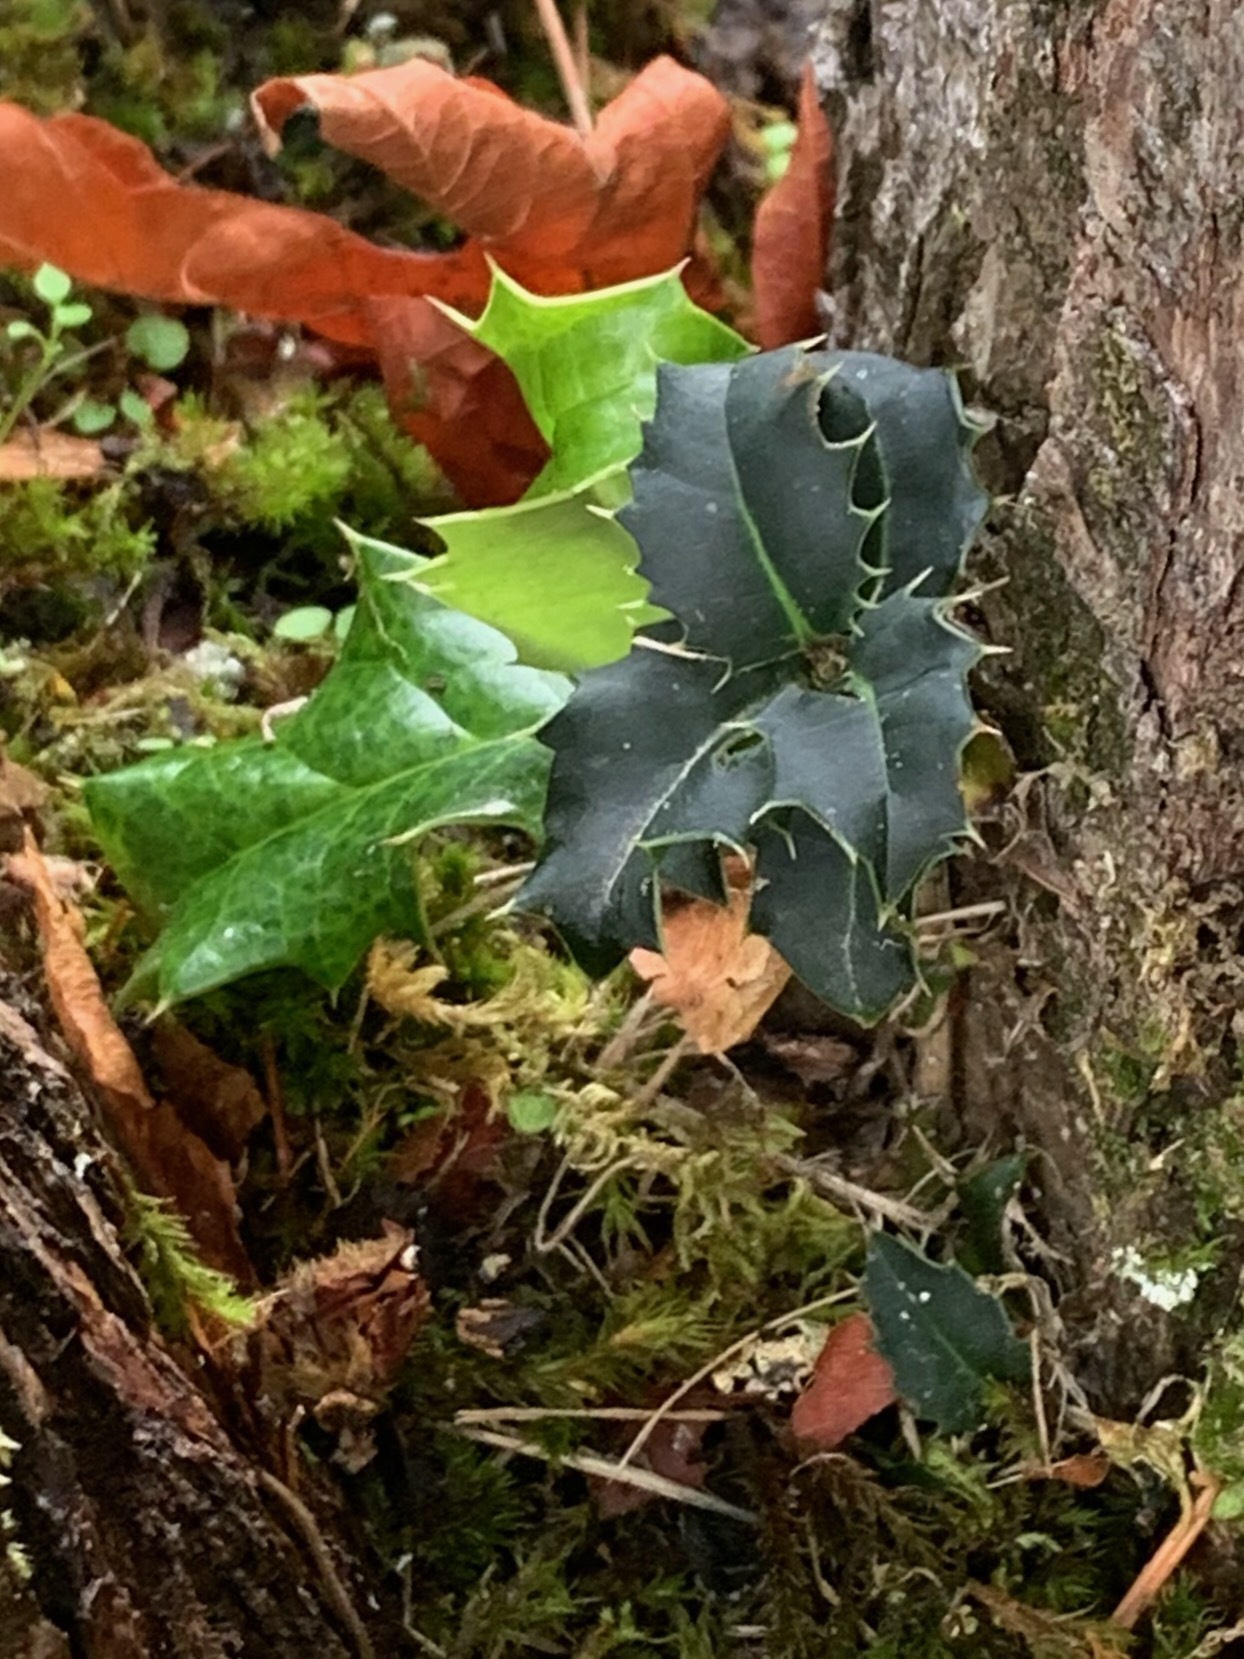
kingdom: Plantae
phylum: Tracheophyta
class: Magnoliopsida
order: Aquifoliales
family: Aquifoliaceae
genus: Ilex
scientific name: Ilex aquifolium
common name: English holly
